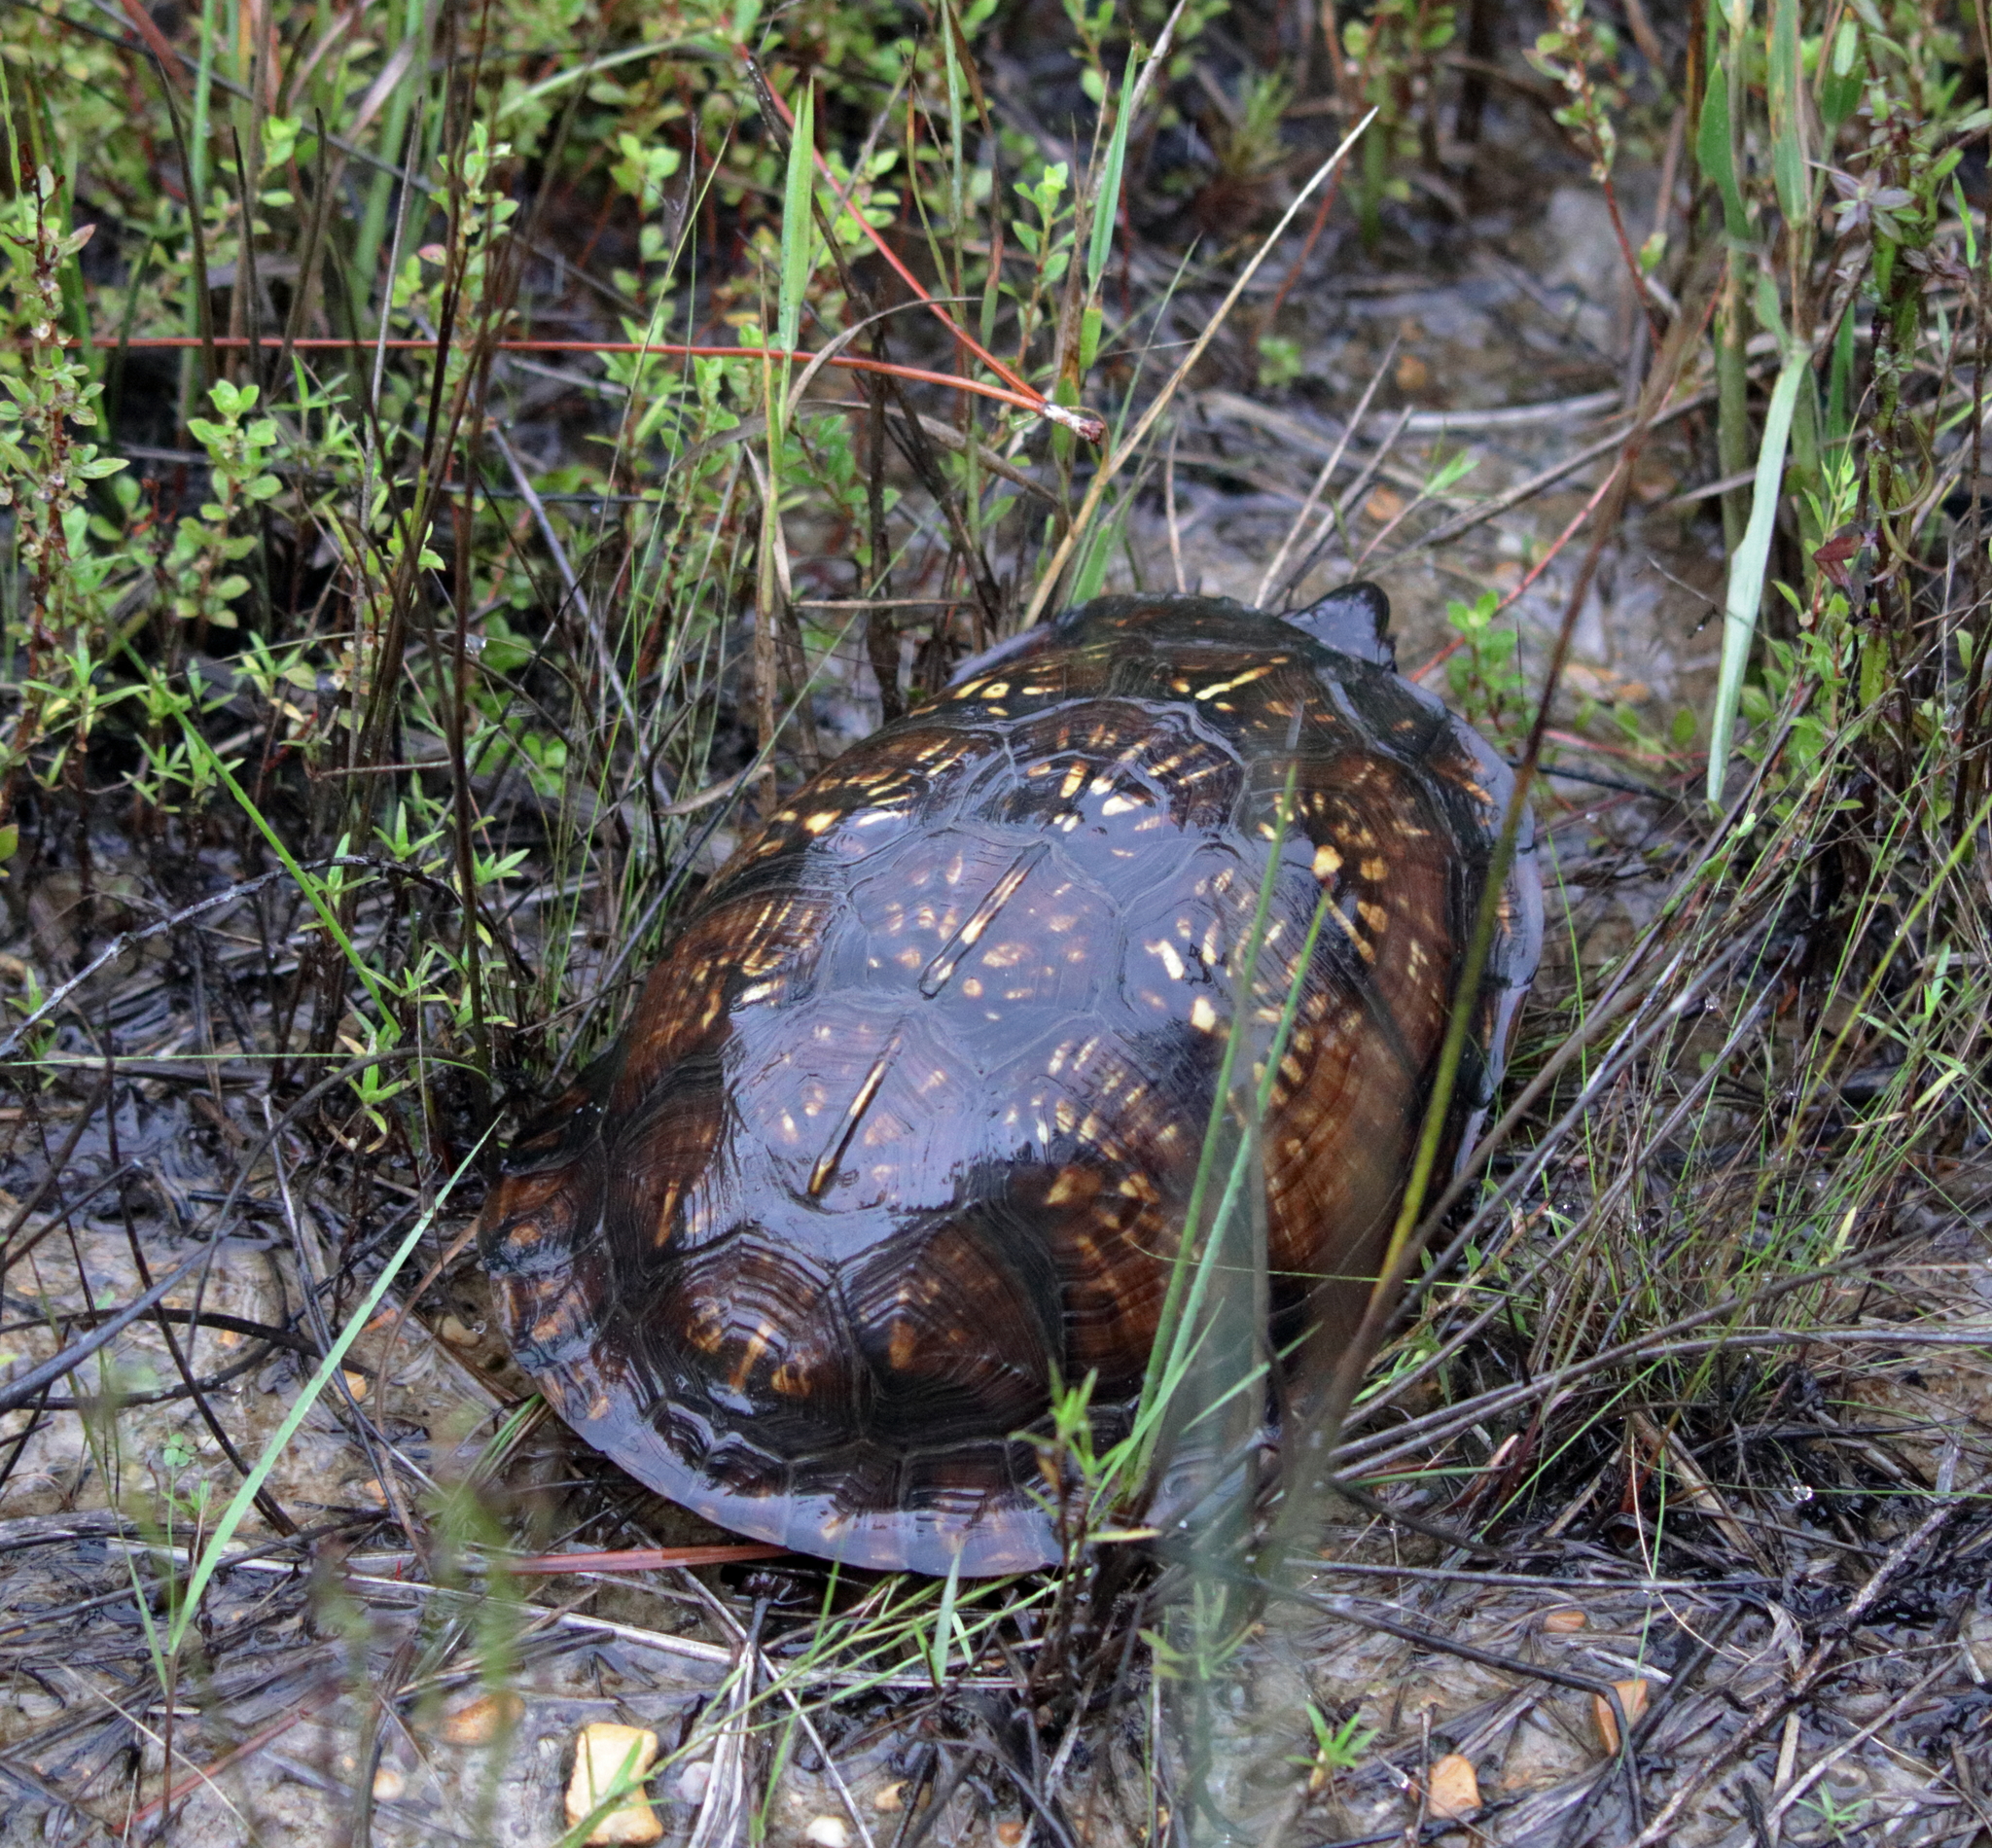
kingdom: Animalia
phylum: Chordata
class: Testudines
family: Emydidae
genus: Terrapene
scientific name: Terrapene carolina
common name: Common box turtle
